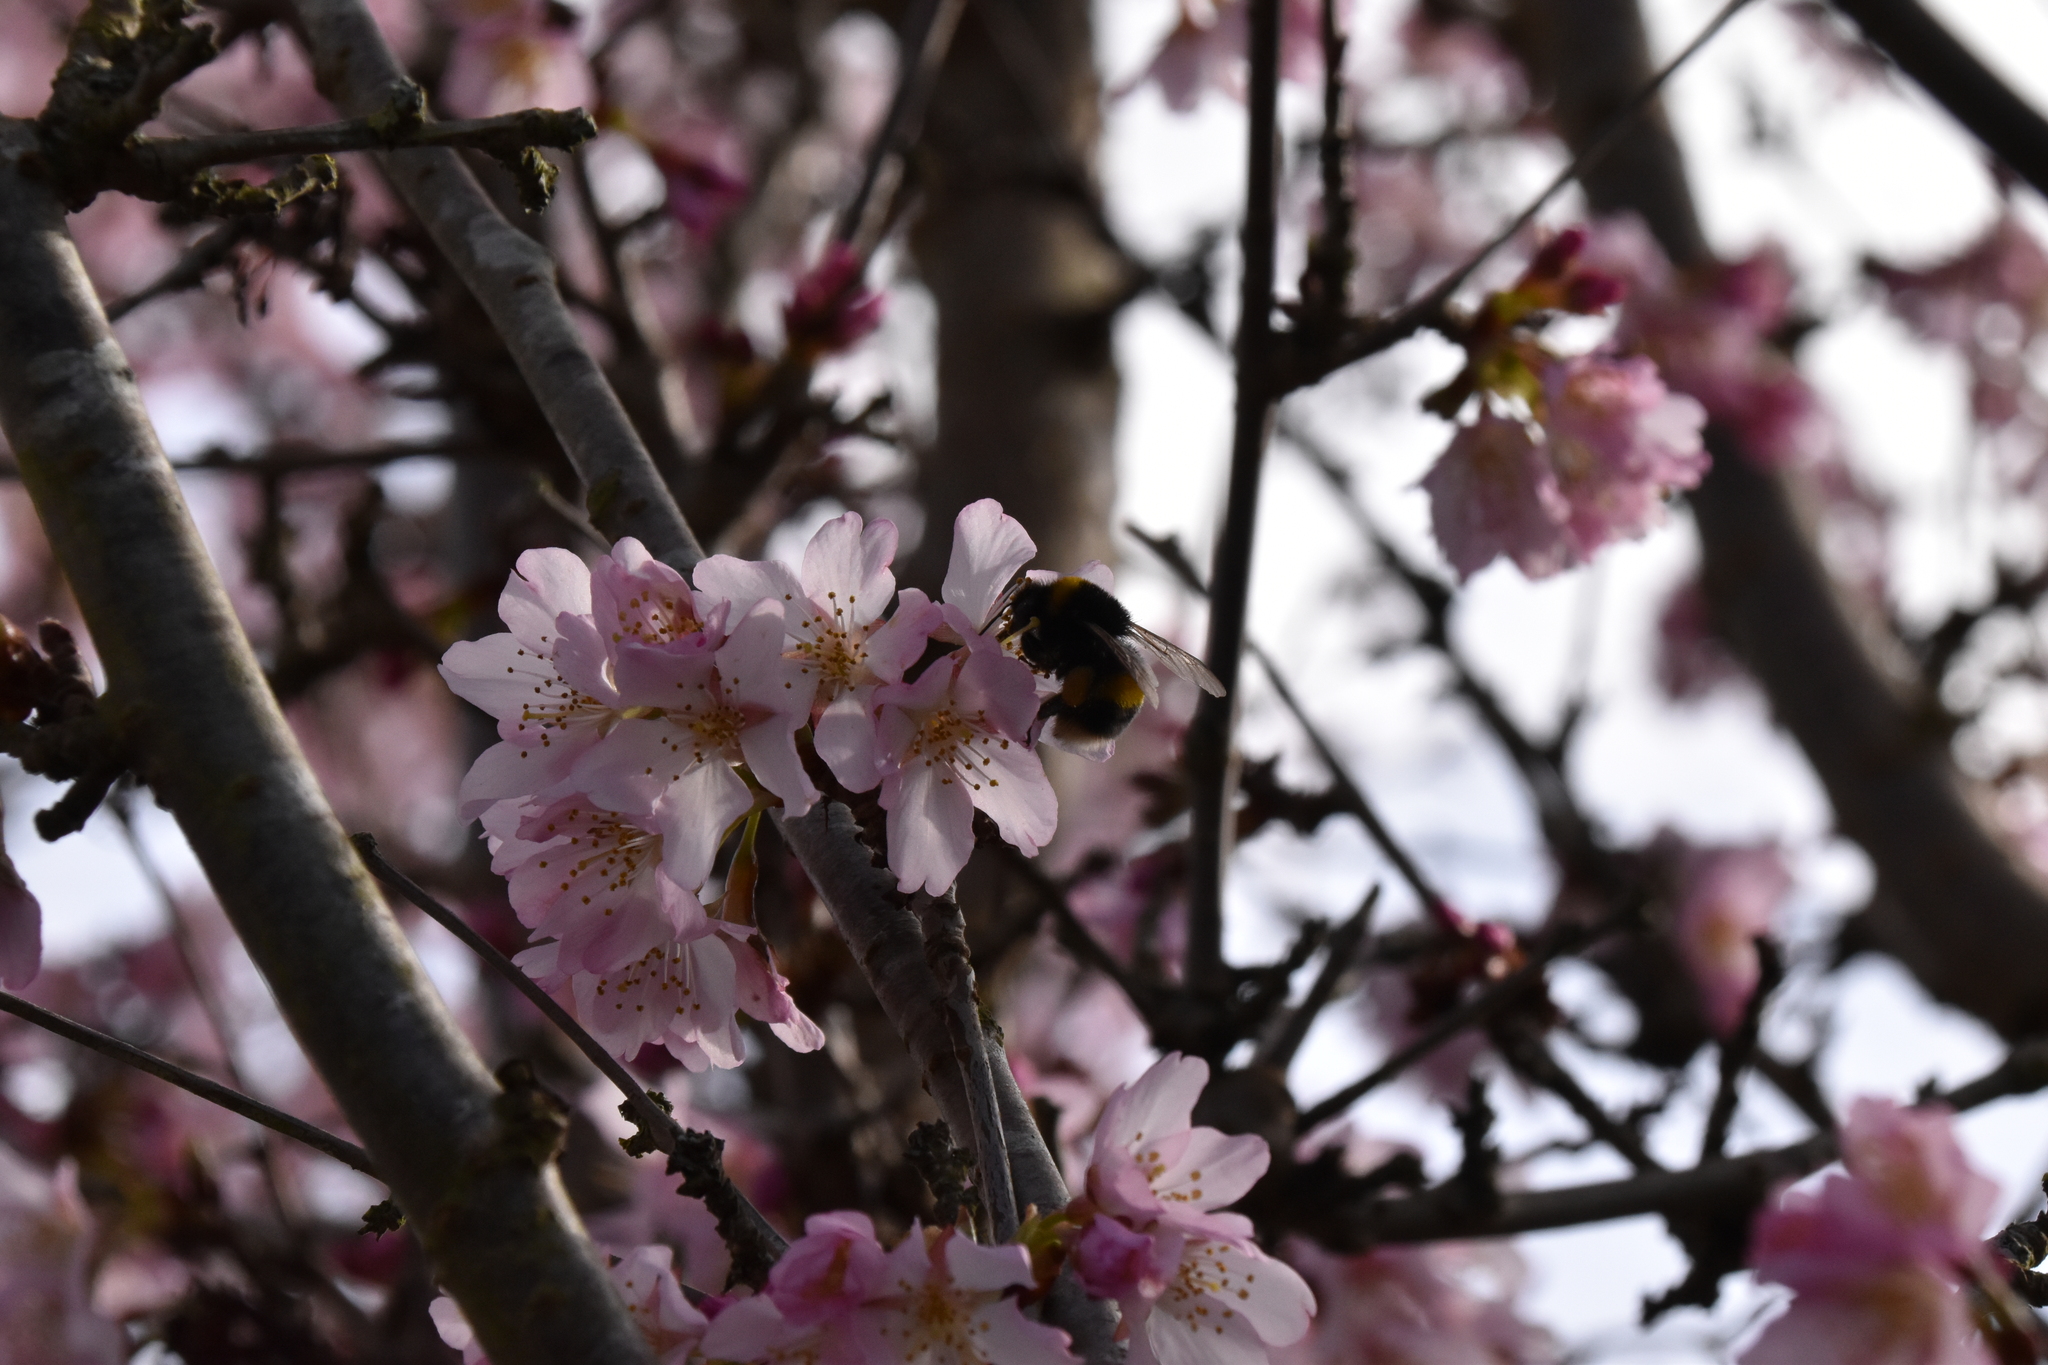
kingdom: Animalia
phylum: Arthropoda
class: Insecta
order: Hymenoptera
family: Apidae
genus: Bombus
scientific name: Bombus terrestris
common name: Buff-tailed bumblebee
